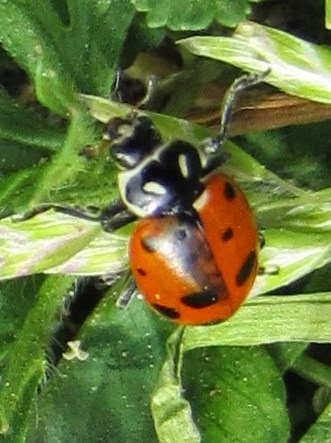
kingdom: Animalia
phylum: Arthropoda
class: Insecta
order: Coleoptera
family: Coccinellidae
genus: Hippodamia
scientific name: Hippodamia convergens
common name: Convergent lady beetle
